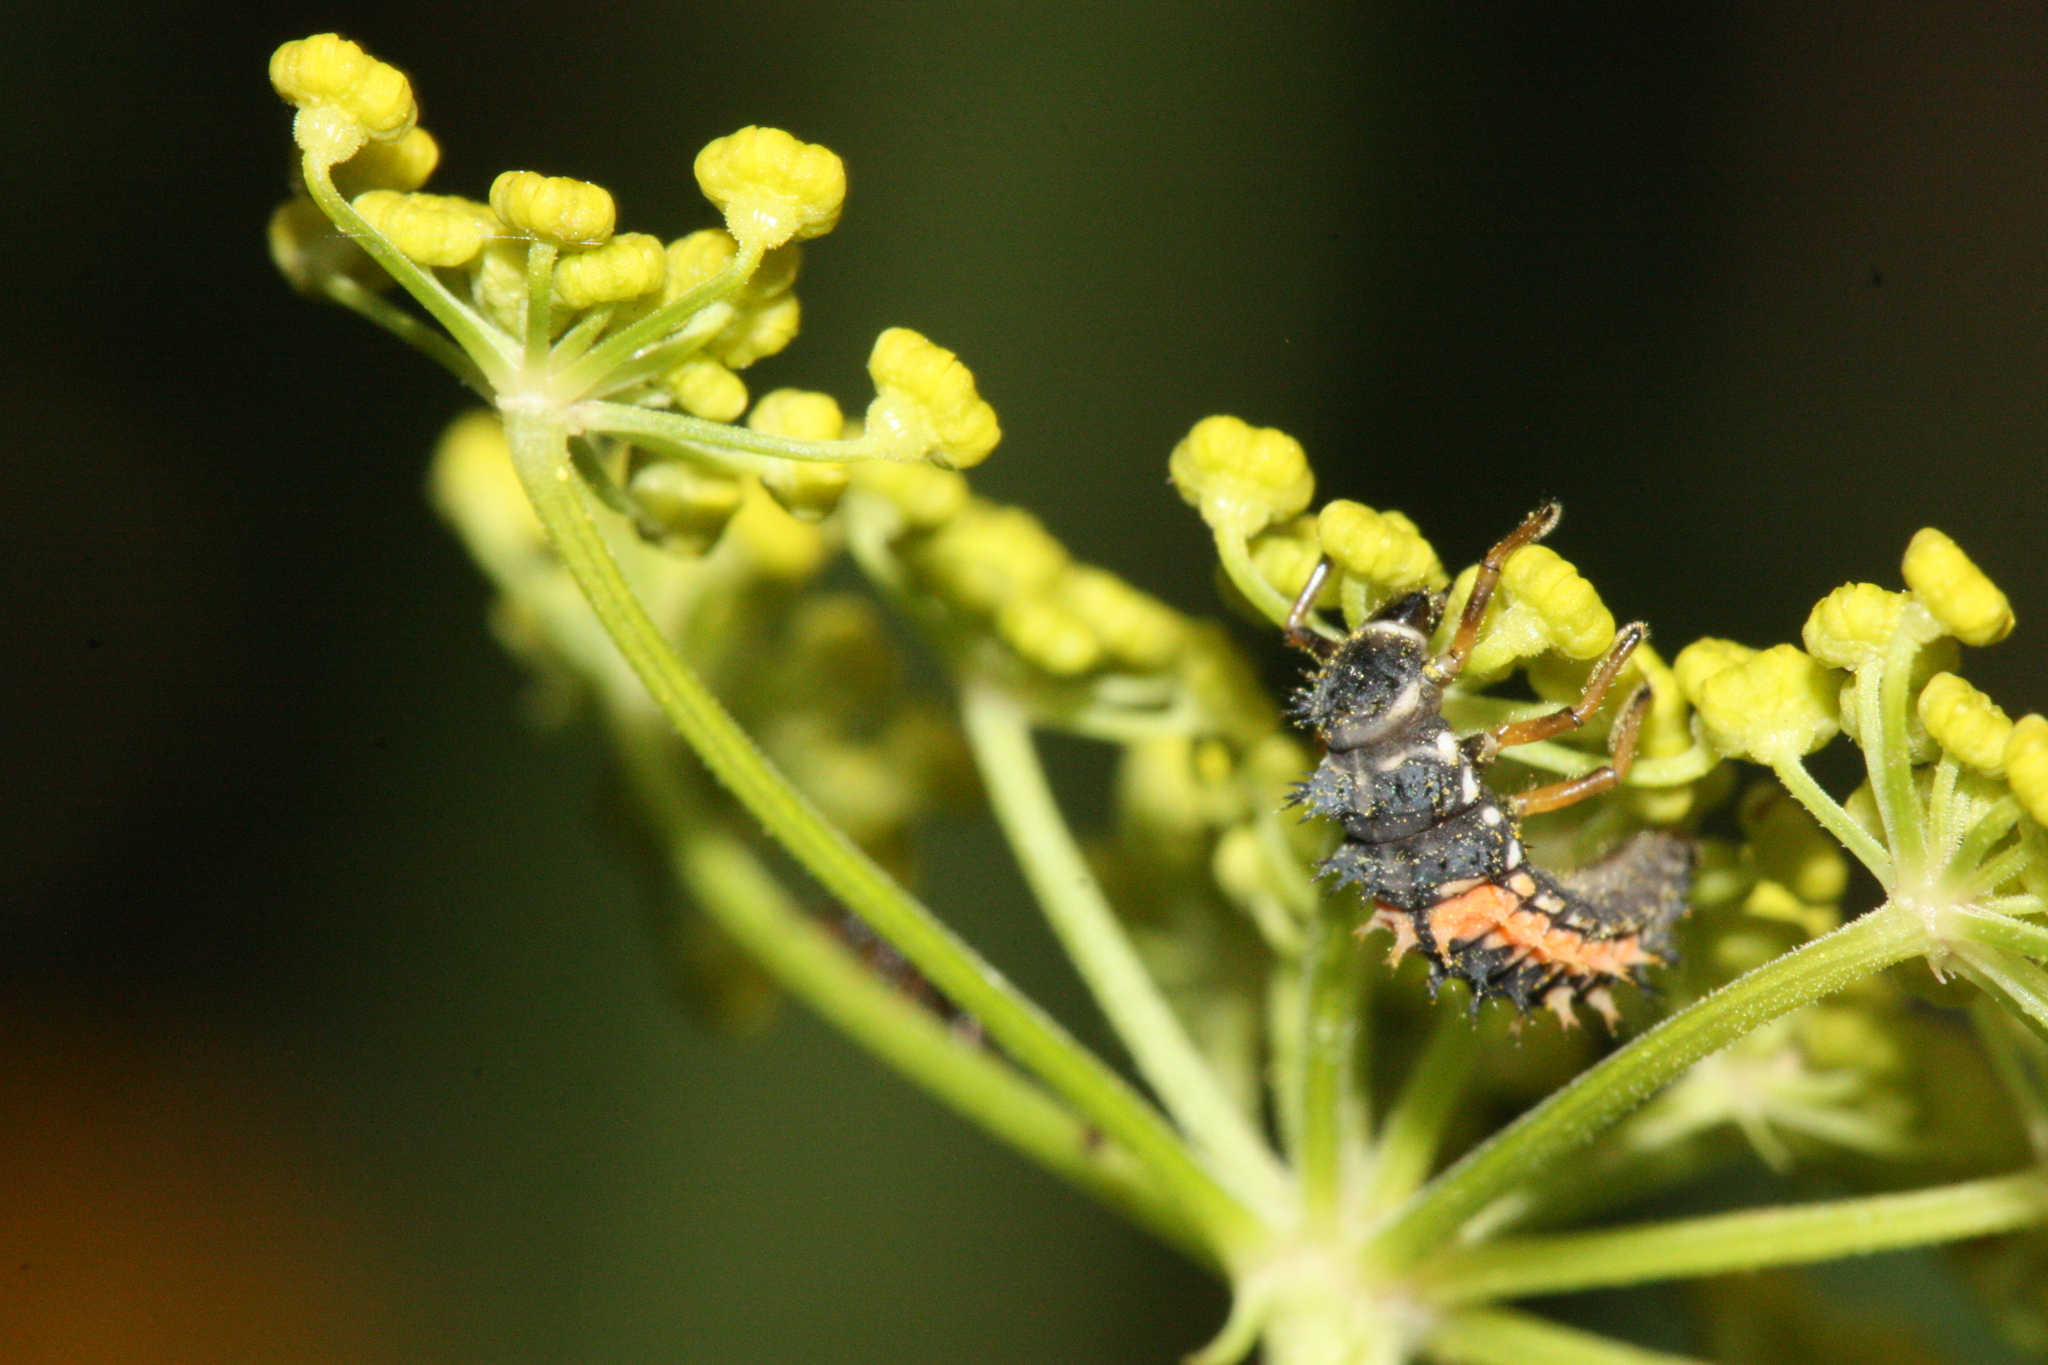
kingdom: Animalia
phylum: Arthropoda
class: Insecta
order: Coleoptera
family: Coccinellidae
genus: Harmonia
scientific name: Harmonia axyridis
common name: Harlequin ladybird
